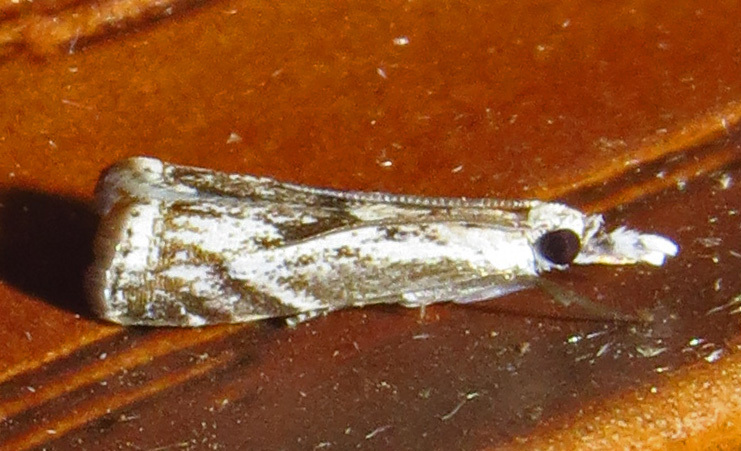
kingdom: Animalia
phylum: Arthropoda
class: Insecta
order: Lepidoptera
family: Crambidae
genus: Microcrambus
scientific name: Microcrambus kimballi
